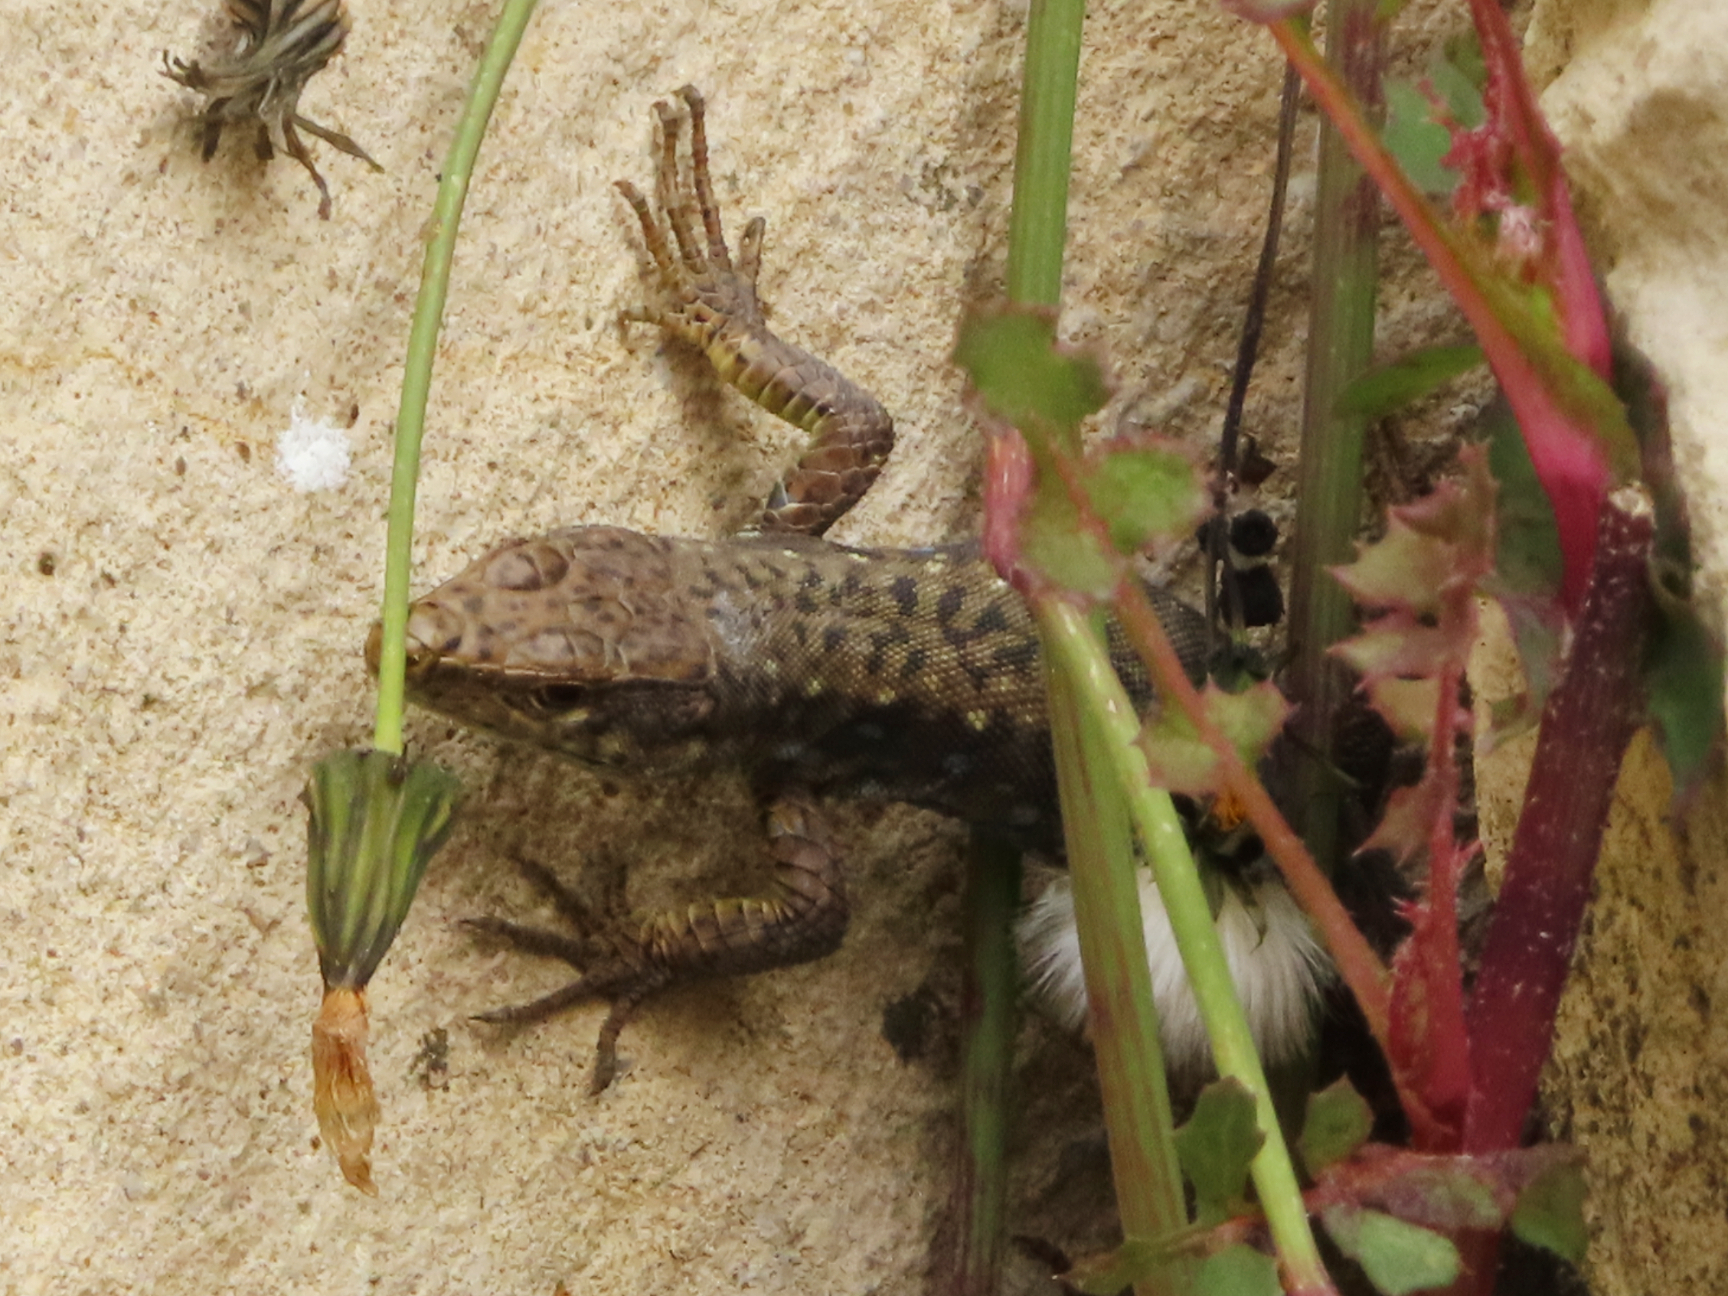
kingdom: Animalia
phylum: Chordata
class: Squamata
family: Lacertidae
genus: Darevskia
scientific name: Darevskia rudis
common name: Spiny-tailed lizard
